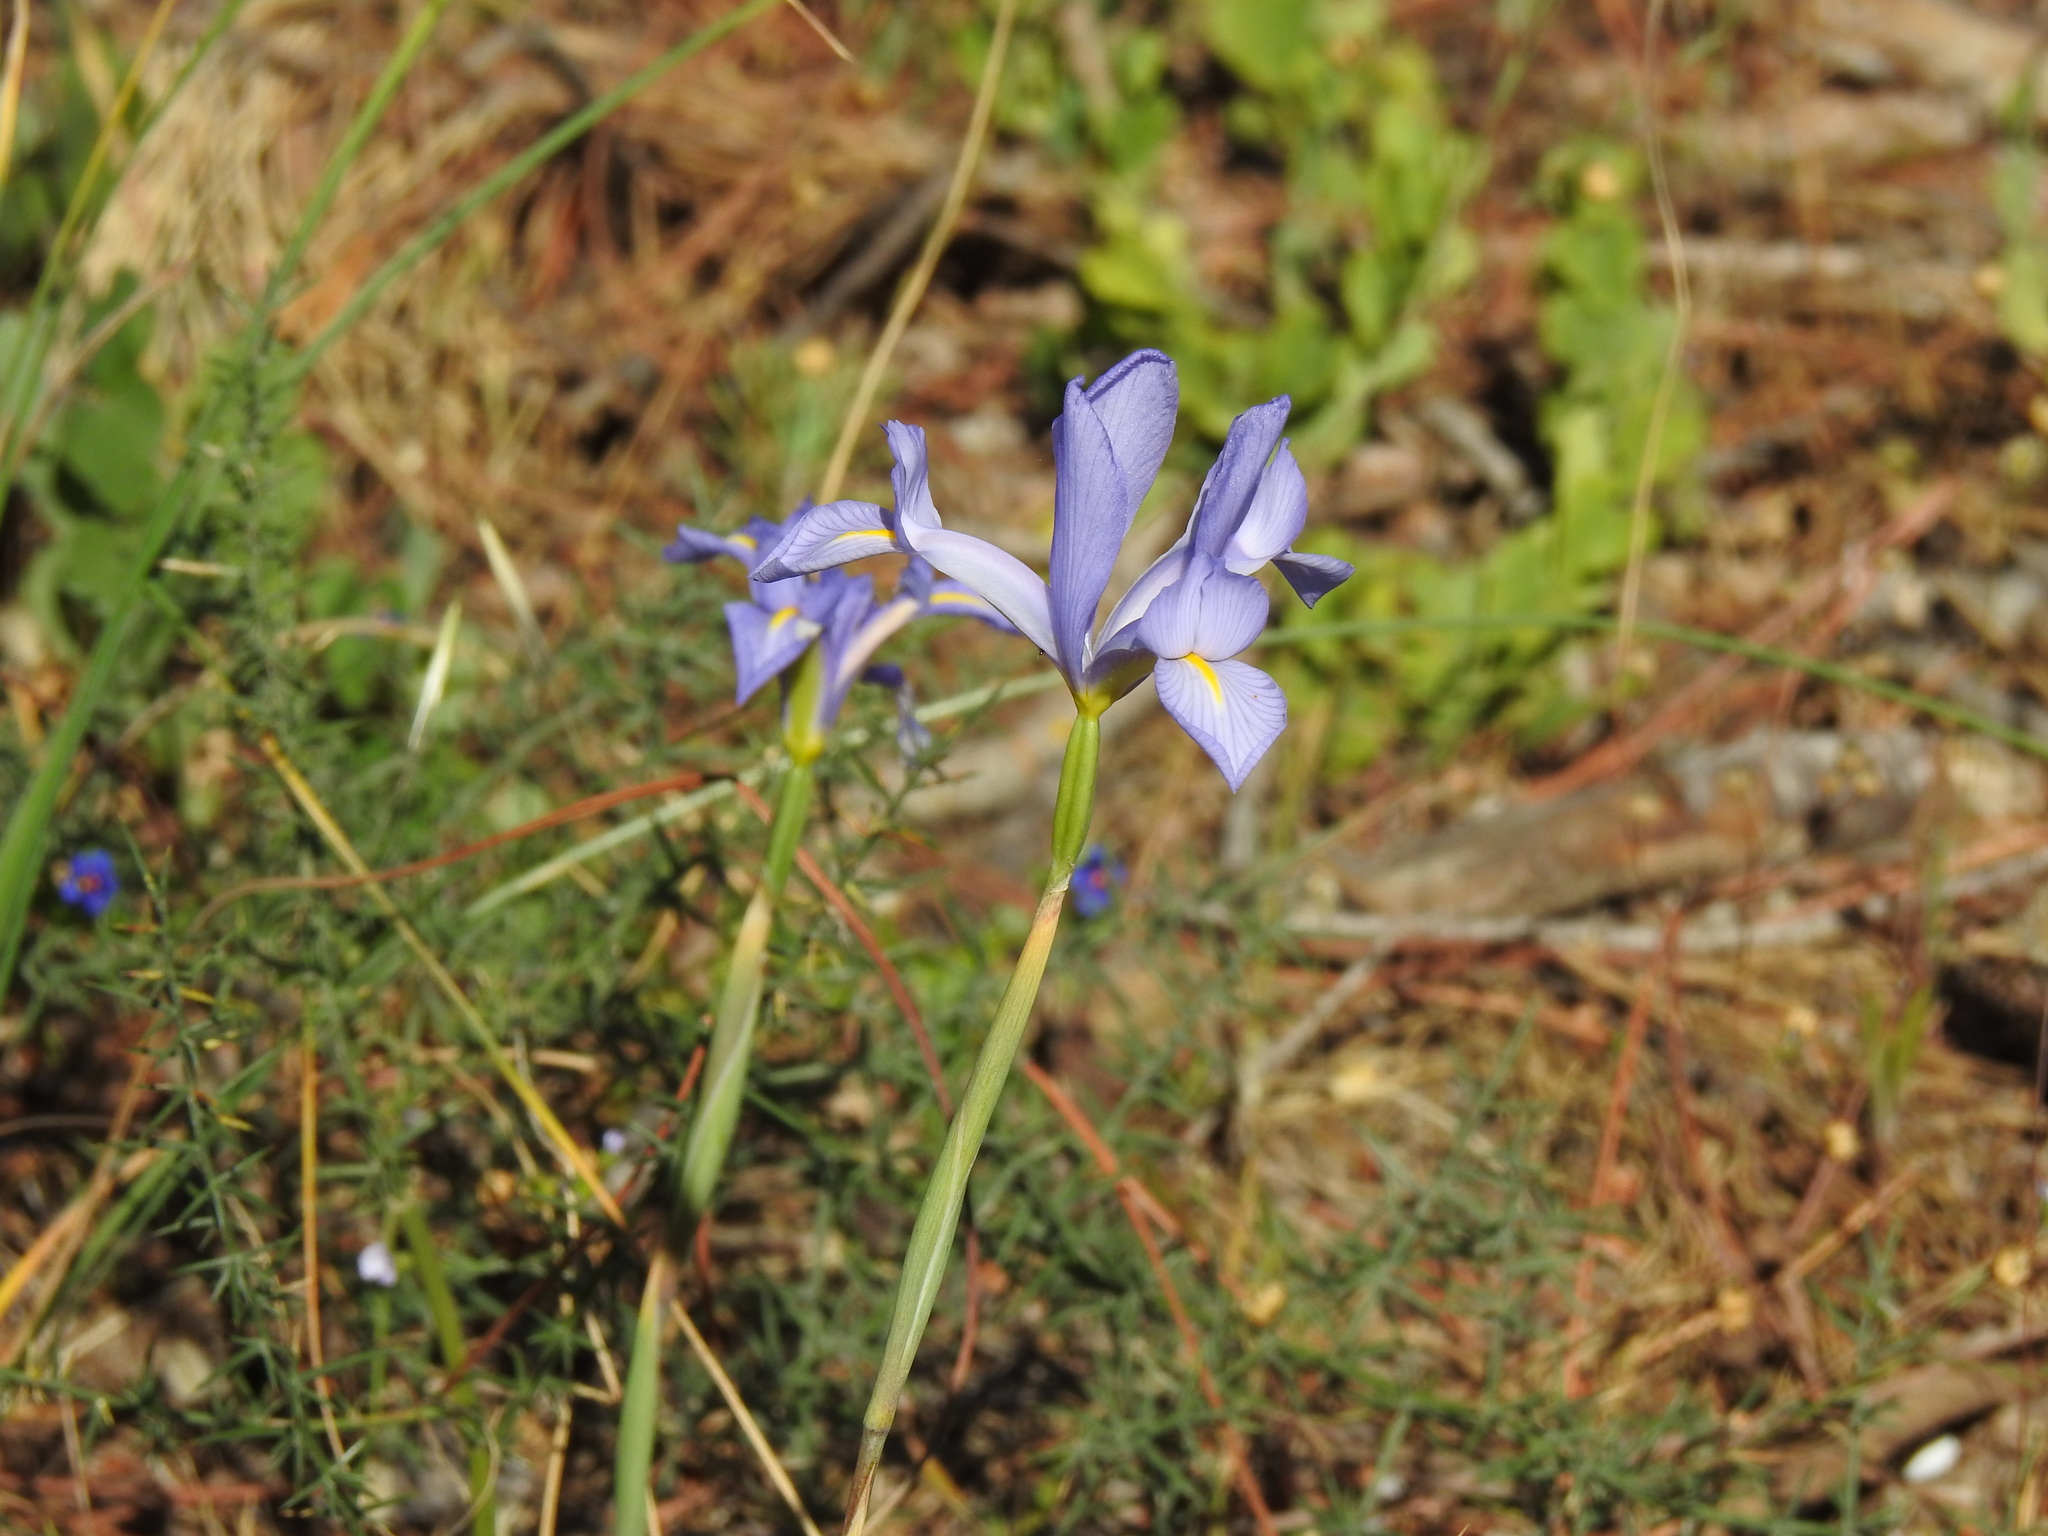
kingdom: Plantae
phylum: Tracheophyta
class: Liliopsida
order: Asparagales
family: Iridaceae
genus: Iris
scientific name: Iris xiphium
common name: Spanish iris
